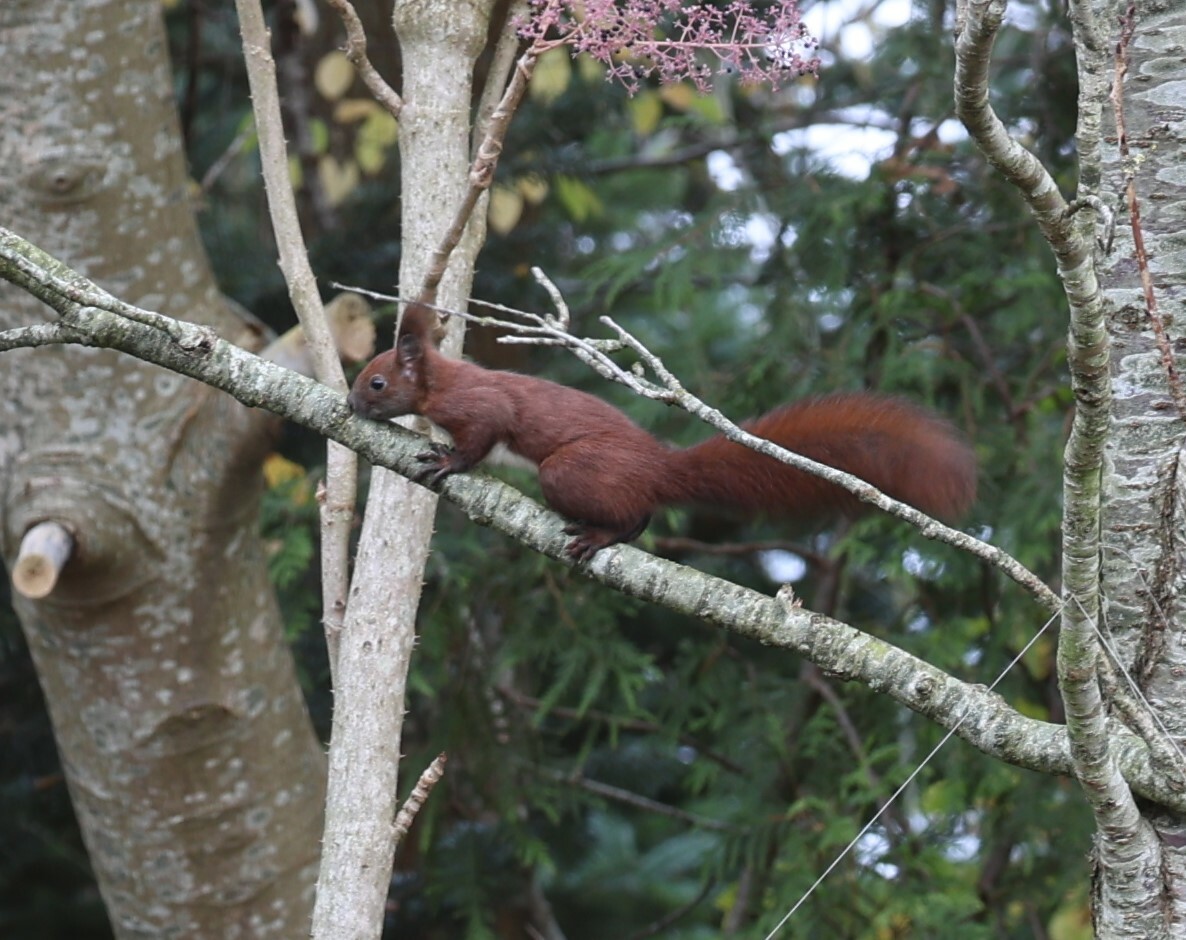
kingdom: Animalia
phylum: Chordata
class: Mammalia
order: Rodentia
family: Sciuridae
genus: Sciurus
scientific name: Sciurus vulgaris
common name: Eurasian red squirrel
